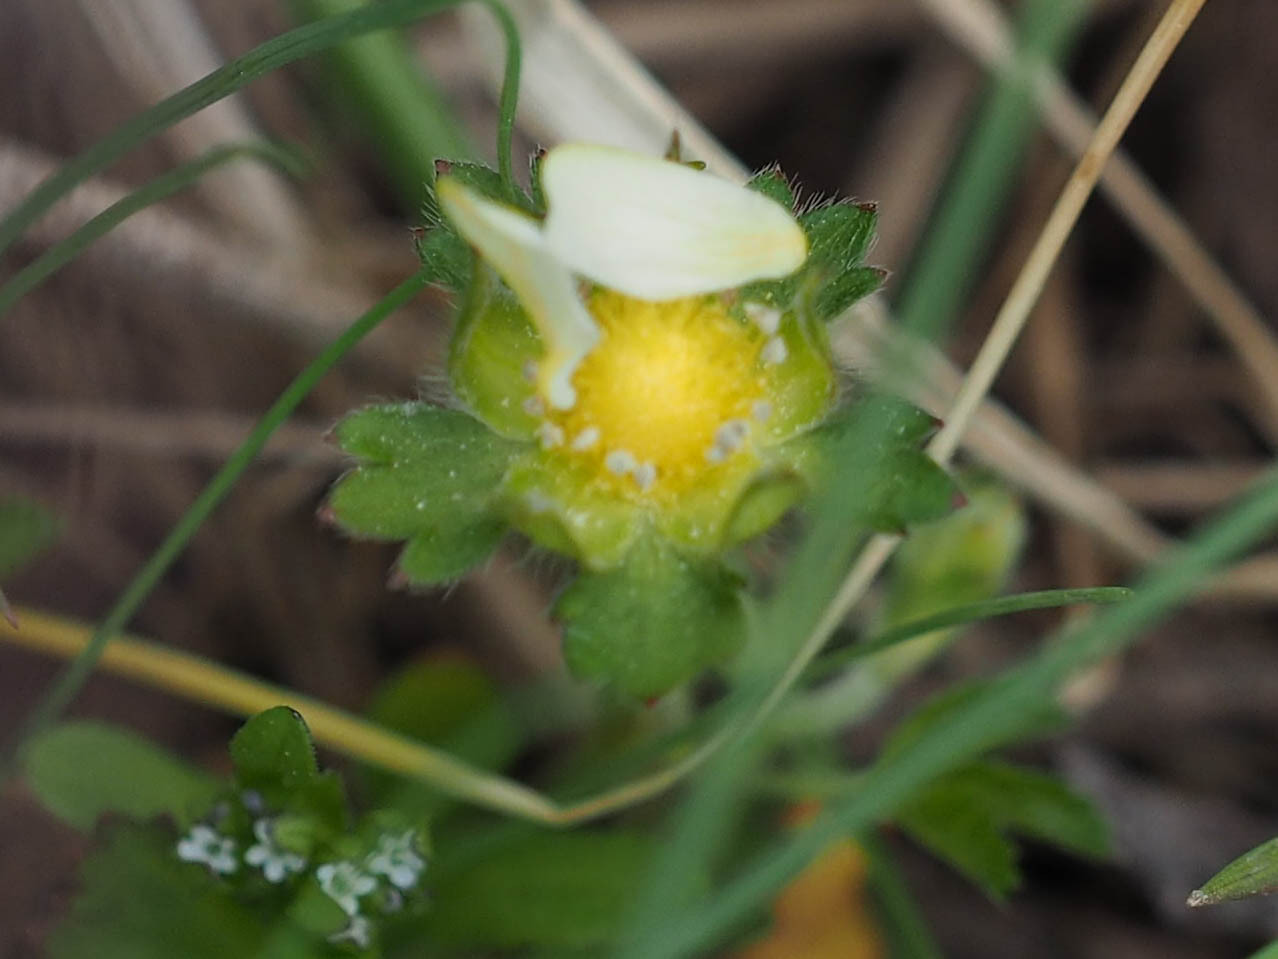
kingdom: Plantae
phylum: Tracheophyta
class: Magnoliopsida
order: Rosales
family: Rosaceae
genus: Potentilla
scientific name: Potentilla indica
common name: Yellow-flowered strawberry
